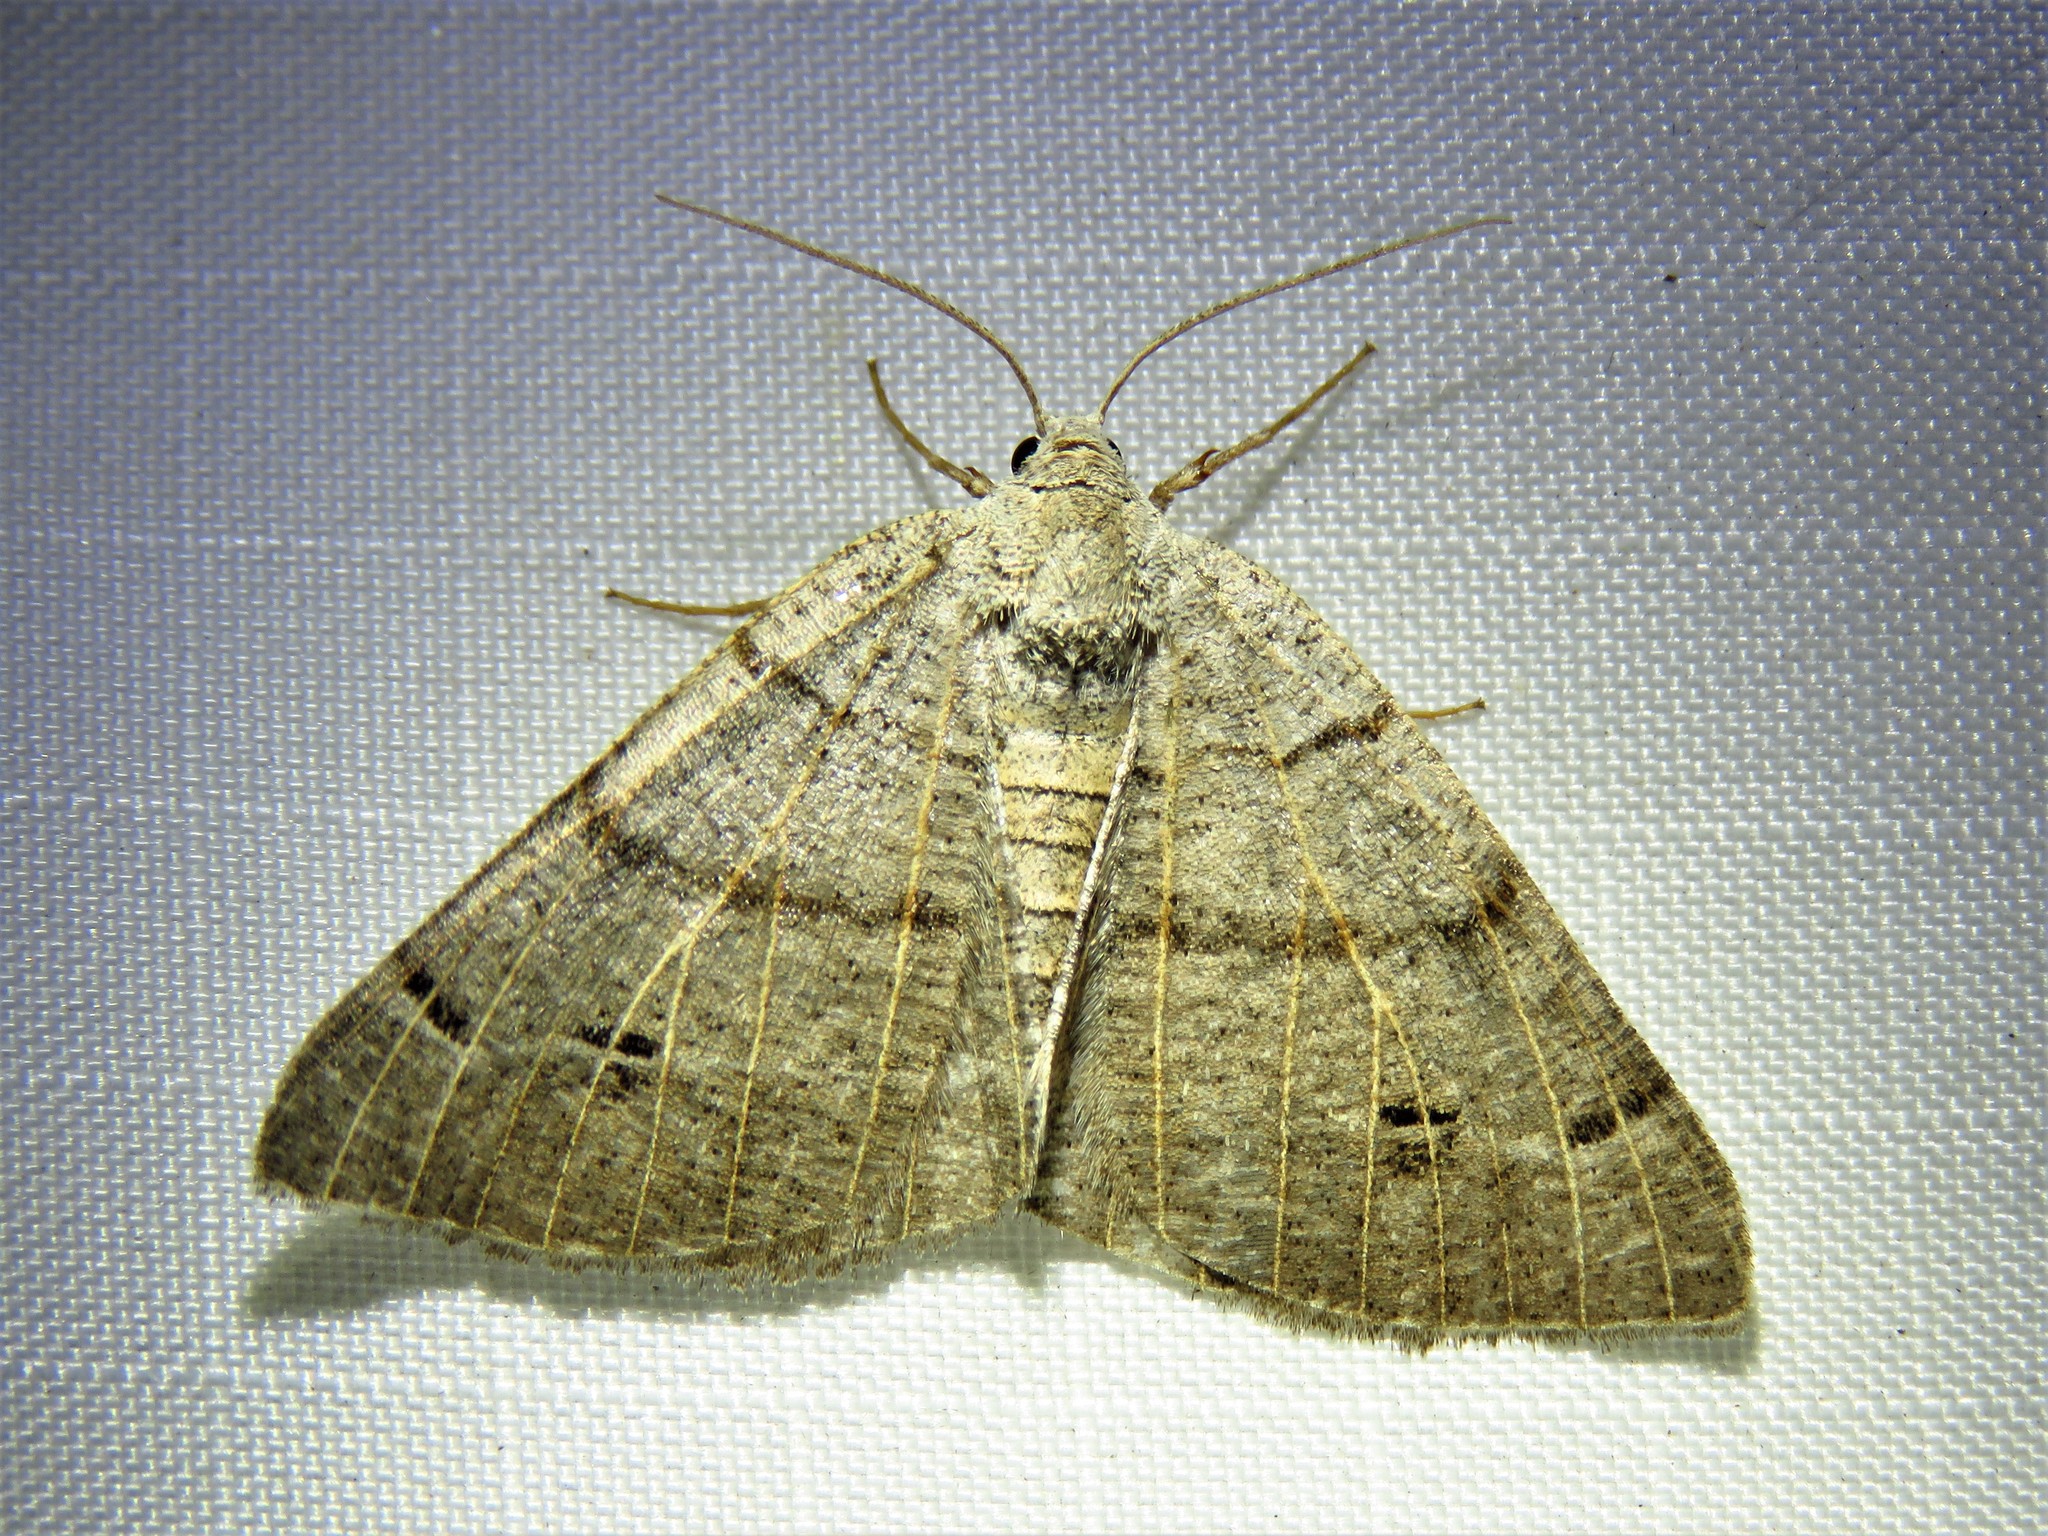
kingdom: Animalia
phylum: Arthropoda
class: Insecta
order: Lepidoptera
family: Geometridae
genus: Isturgia
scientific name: Isturgia dislocaria
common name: Pale-viened enconista
